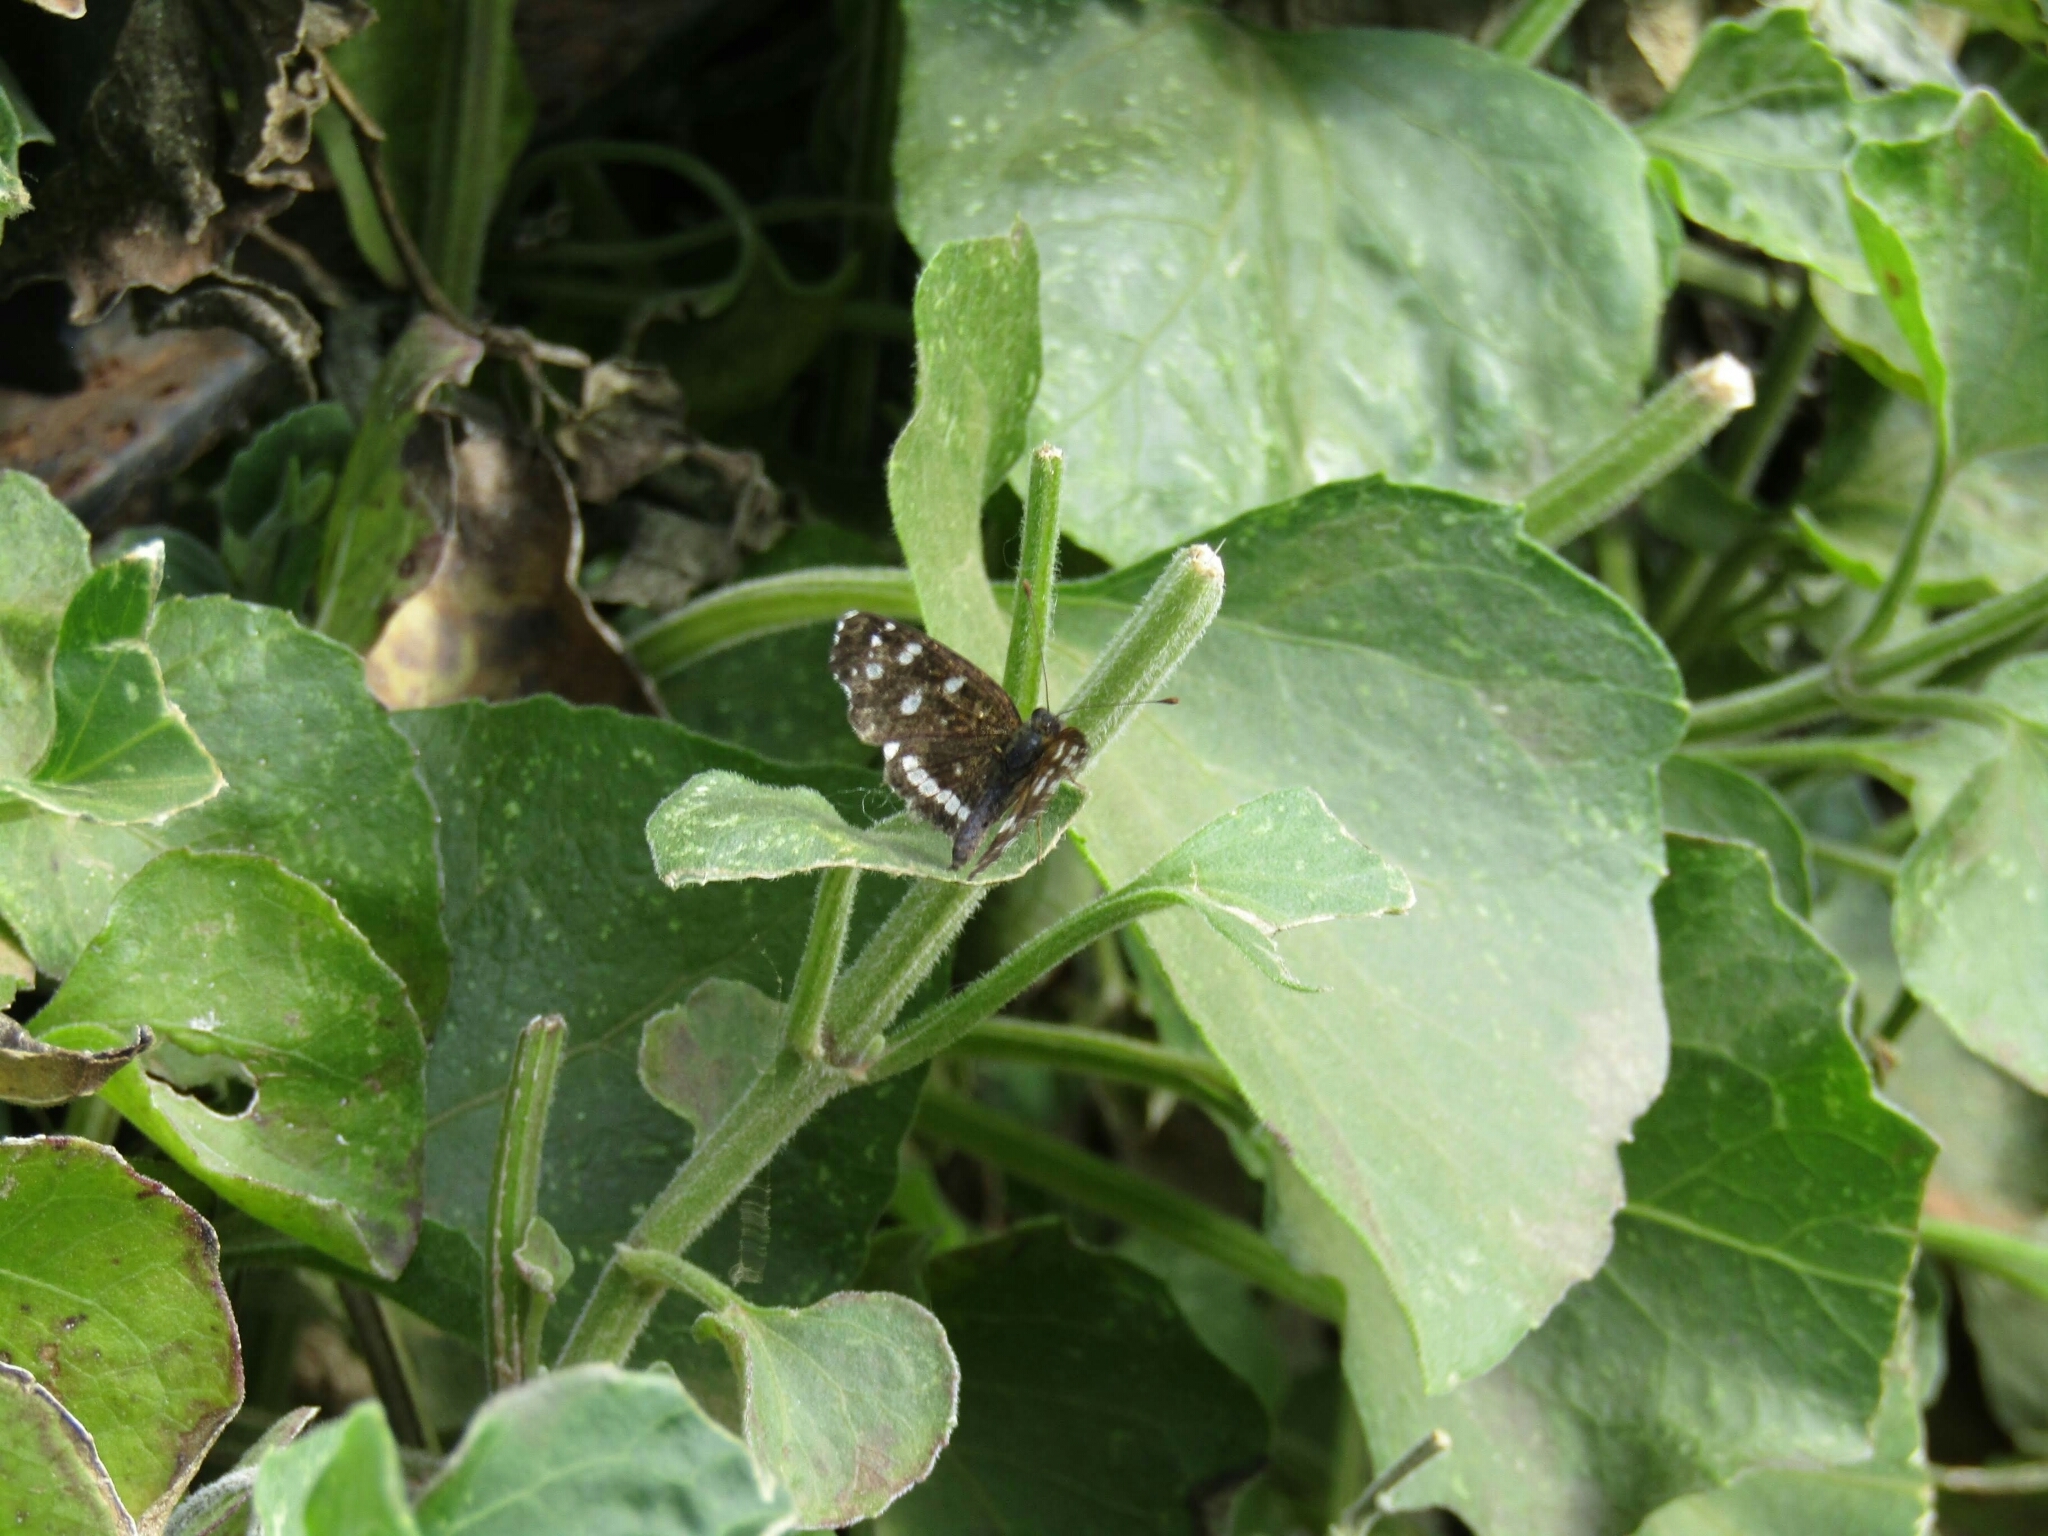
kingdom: Animalia
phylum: Arthropoda
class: Insecta
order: Lepidoptera
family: Nymphalidae
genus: Ortilia
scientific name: Ortilia ithra
